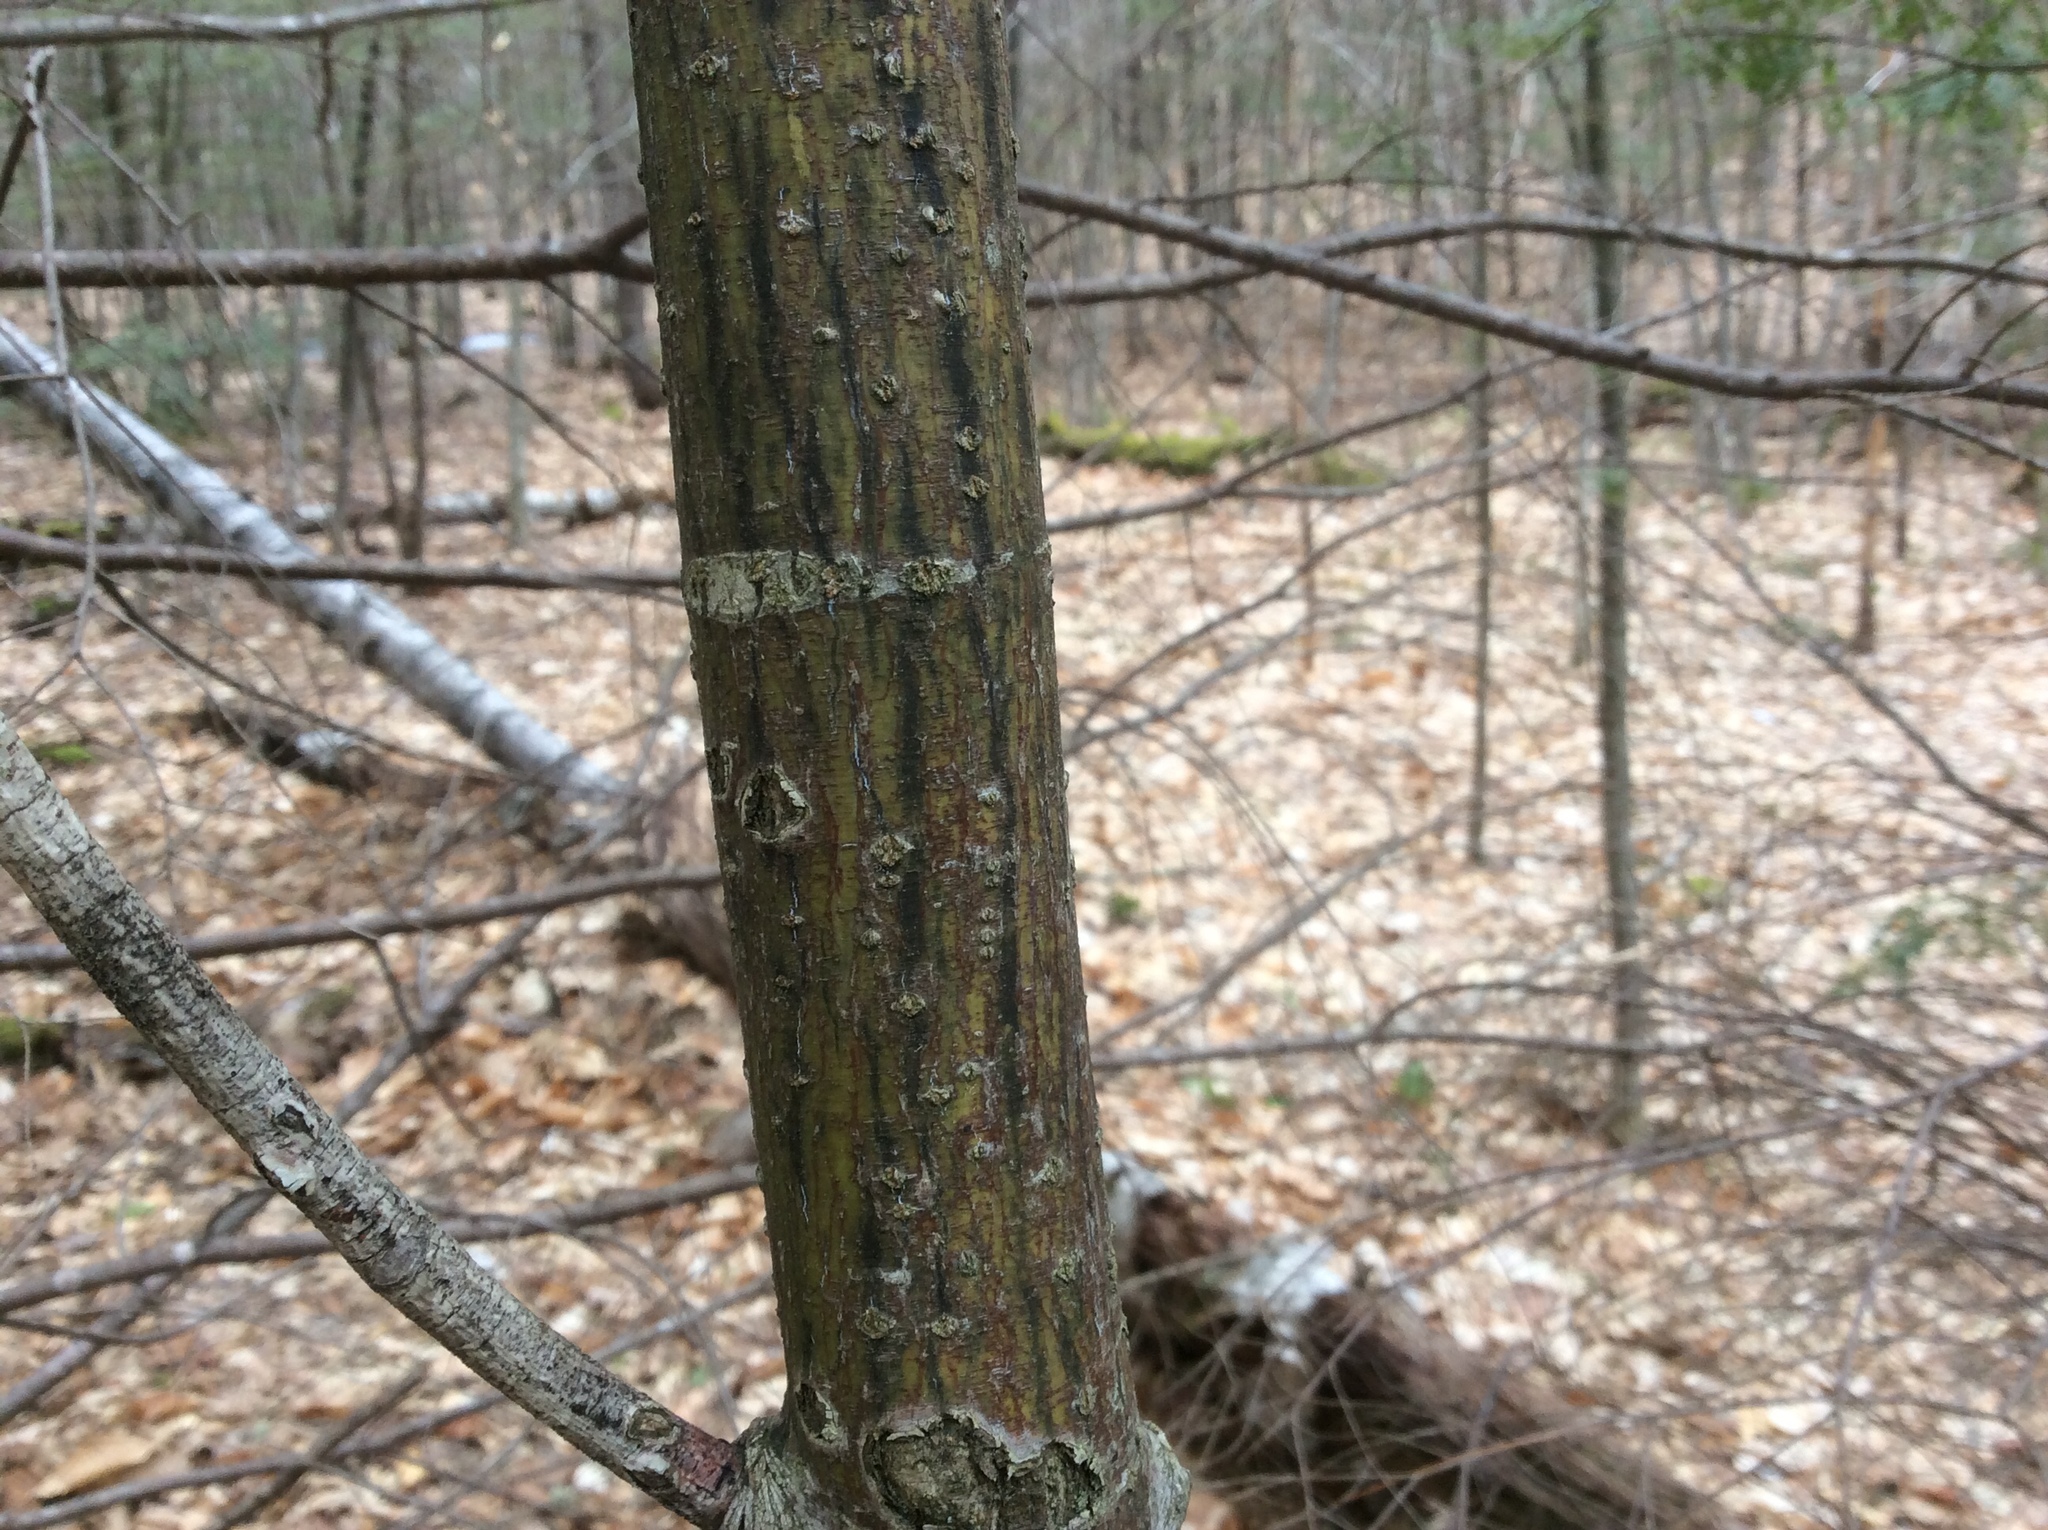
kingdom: Plantae
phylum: Tracheophyta
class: Magnoliopsida
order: Sapindales
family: Sapindaceae
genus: Acer
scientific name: Acer pensylvanicum
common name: Moosewood
